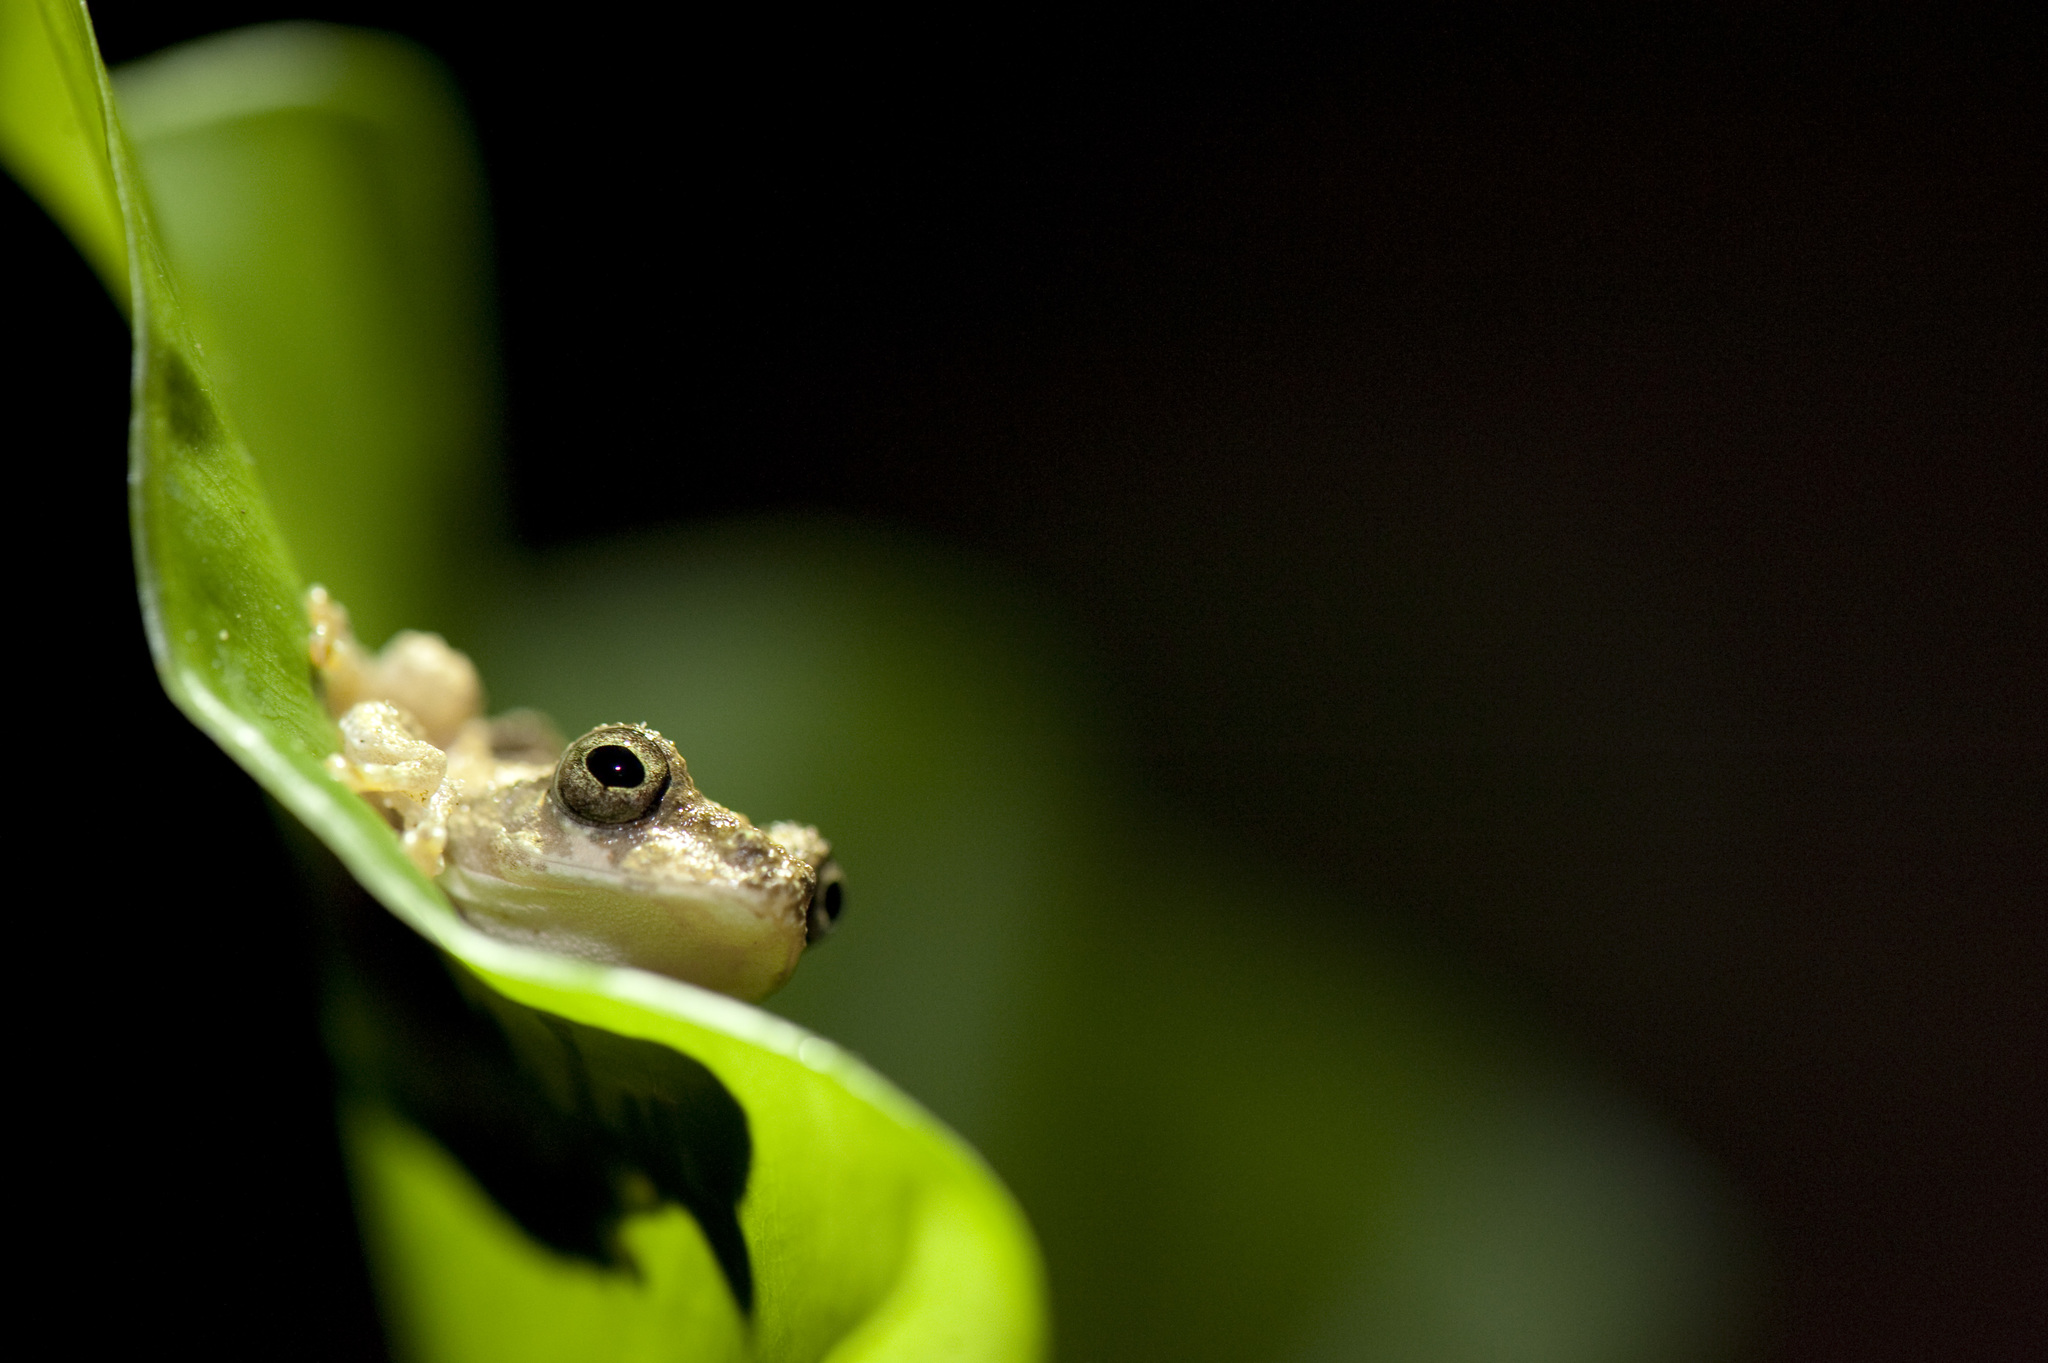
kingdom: Animalia
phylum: Chordata
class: Amphibia
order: Anura
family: Rhacophoridae
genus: Kurixalus
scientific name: Kurixalus idiootocus
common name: Temple treefrog
